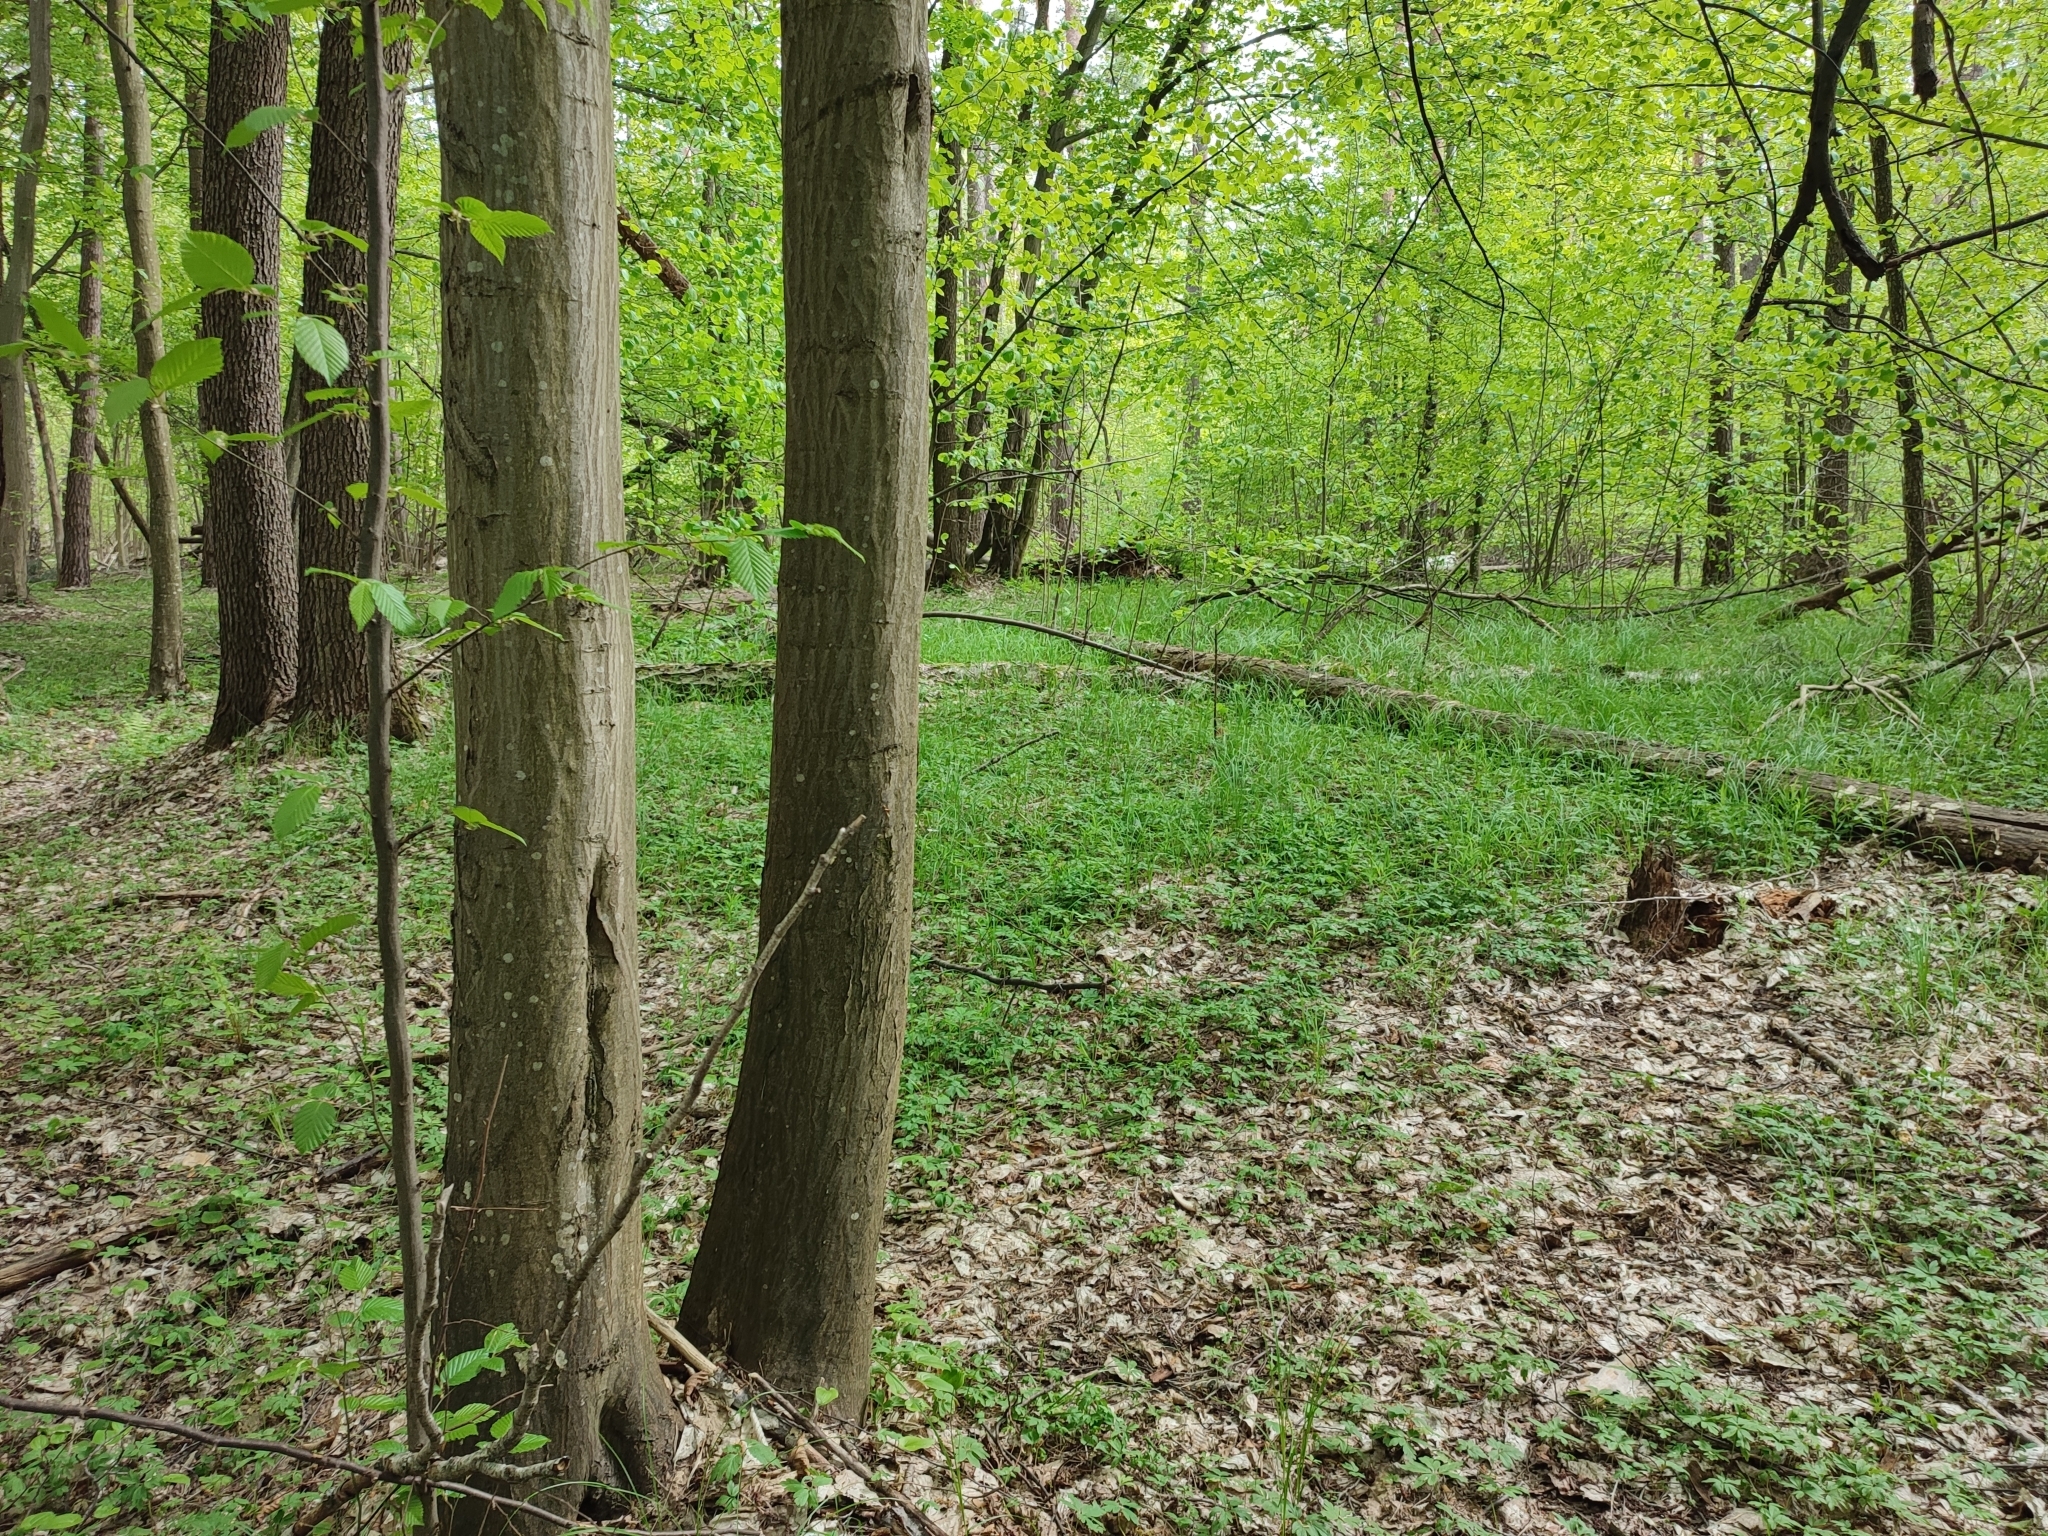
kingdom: Plantae
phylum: Tracheophyta
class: Magnoliopsida
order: Fagales
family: Betulaceae
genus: Carpinus
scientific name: Carpinus betulus
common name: Hornbeam
